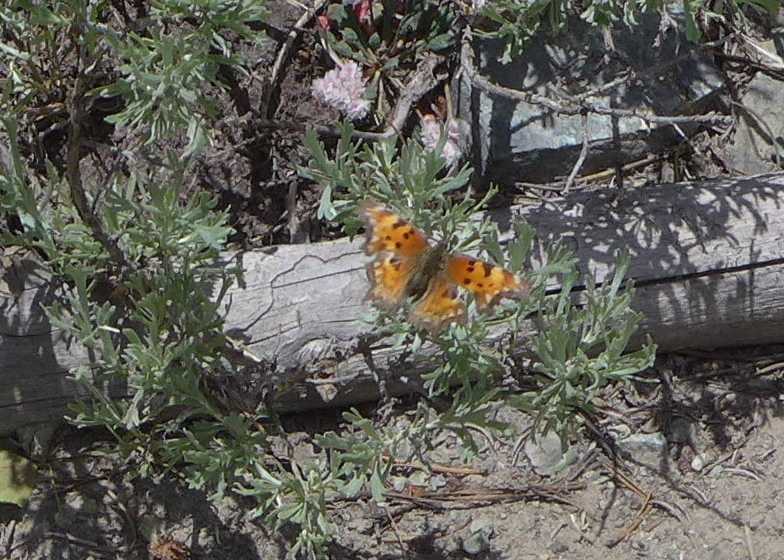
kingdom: Animalia
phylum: Arthropoda
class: Insecta
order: Lepidoptera
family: Nymphalidae
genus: Polygonia
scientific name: Polygonia gracilis
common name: Hoary comma
